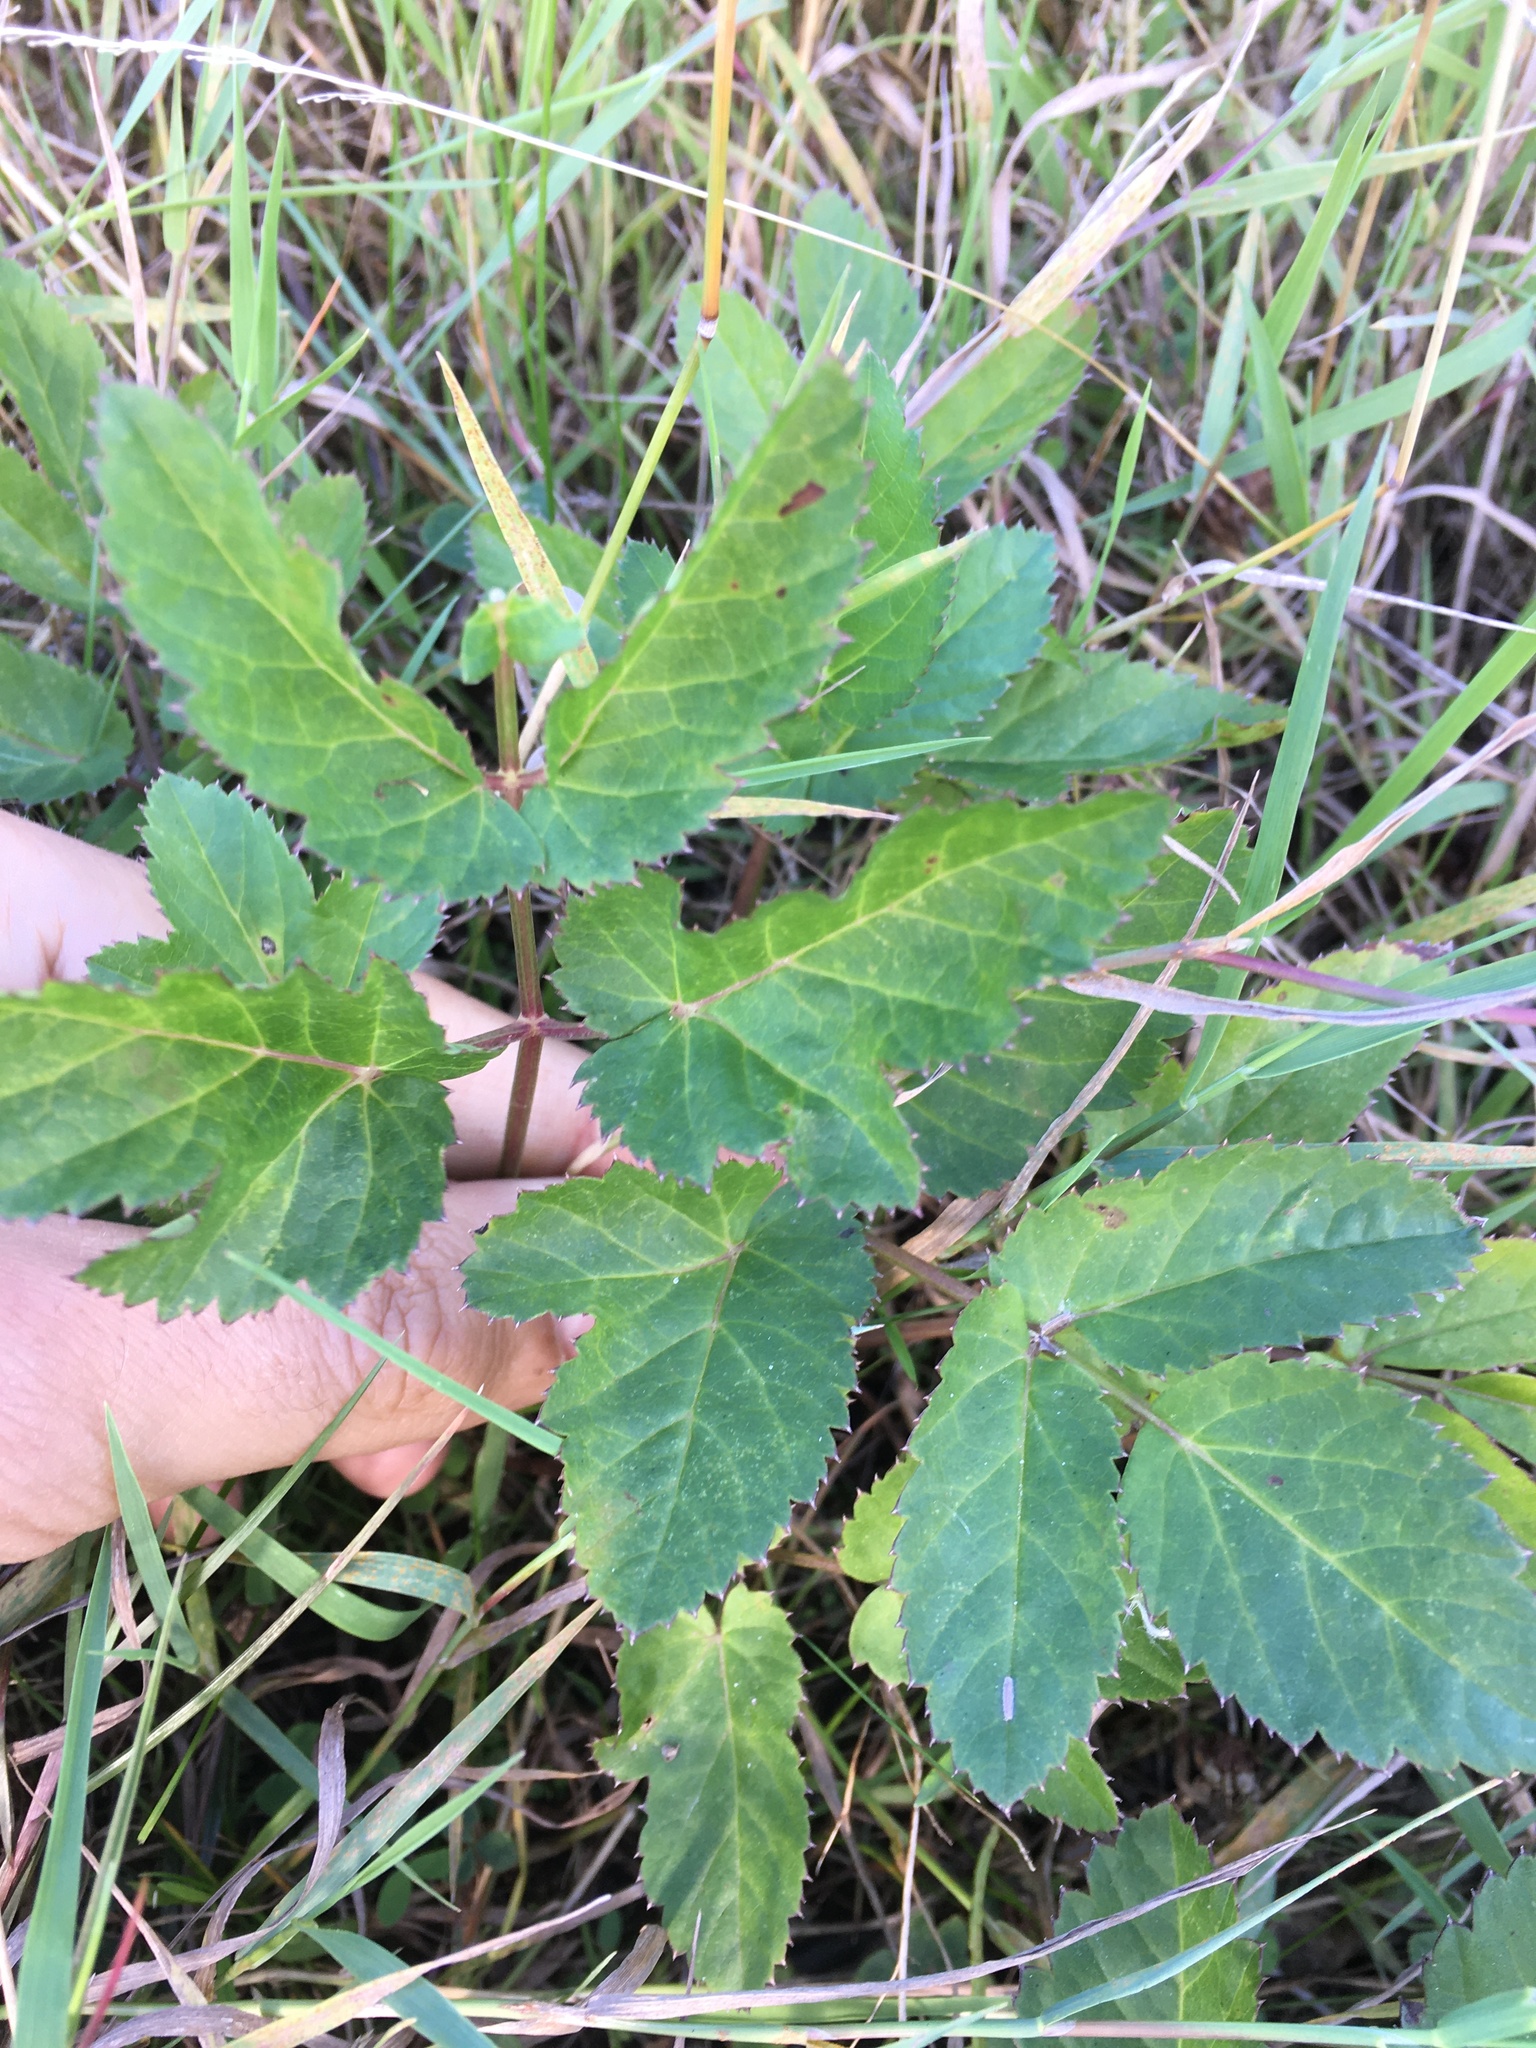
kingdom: Plantae
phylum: Tracheophyta
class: Magnoliopsida
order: Apiales
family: Apiaceae
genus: Aegopodium
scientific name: Aegopodium podagraria
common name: Ground-elder
